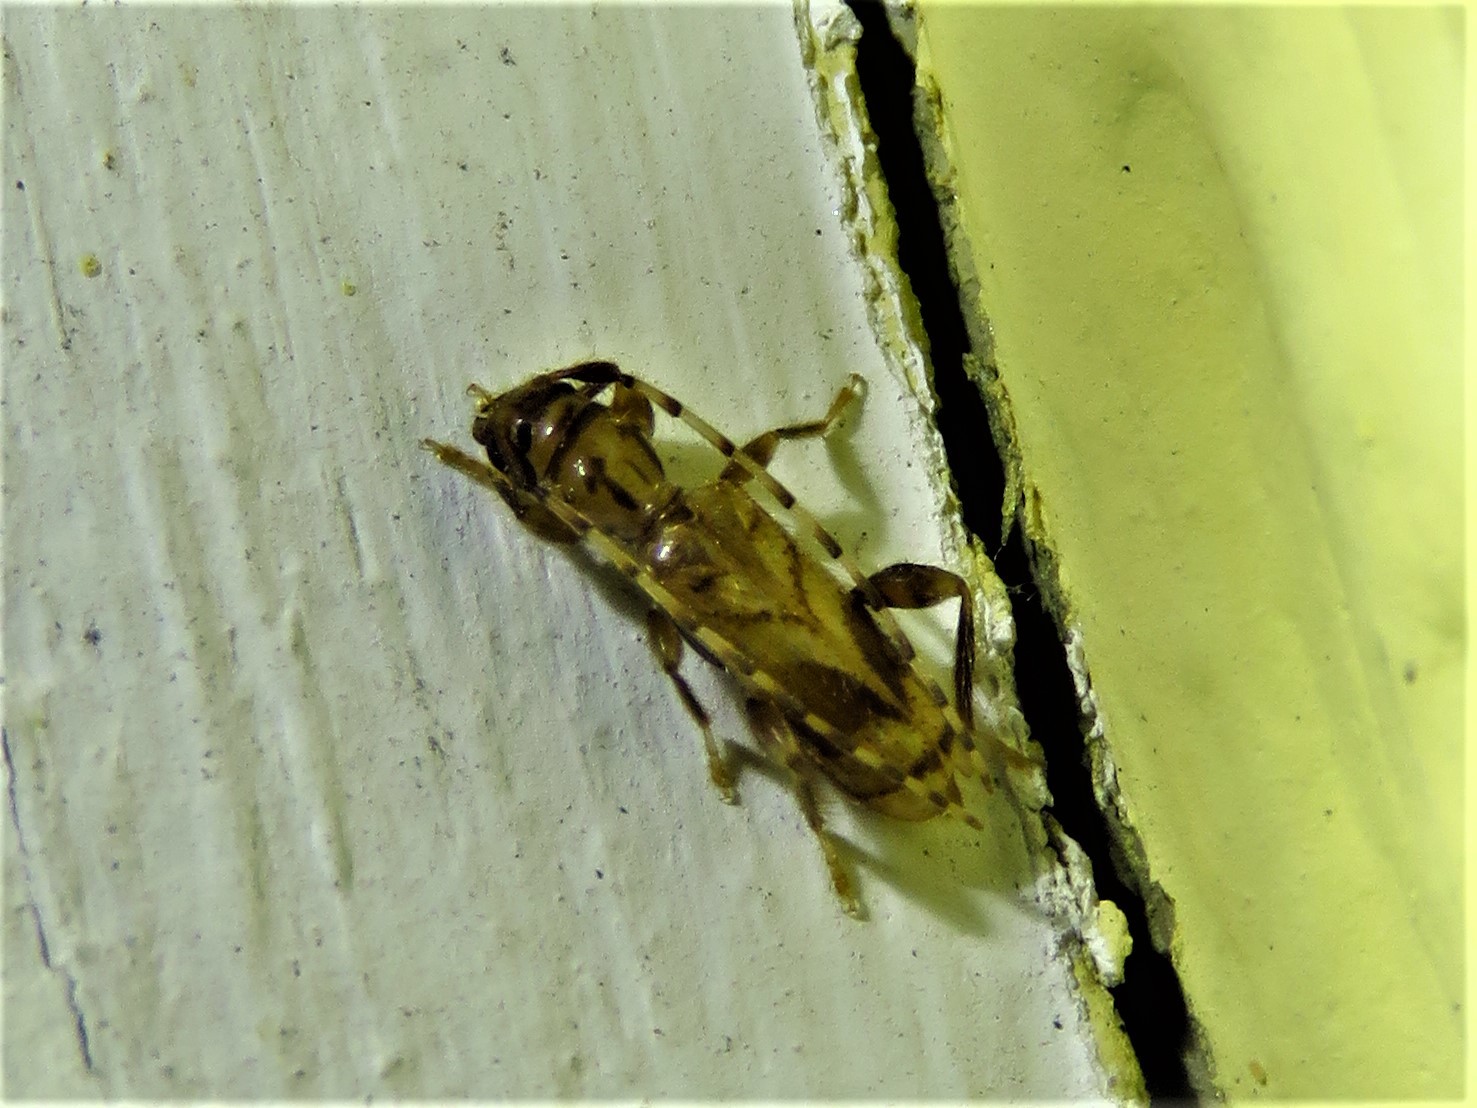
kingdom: Animalia
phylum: Arthropoda
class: Insecta
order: Coleoptera
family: Cerambycidae
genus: Obrium
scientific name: Obrium maculatum
